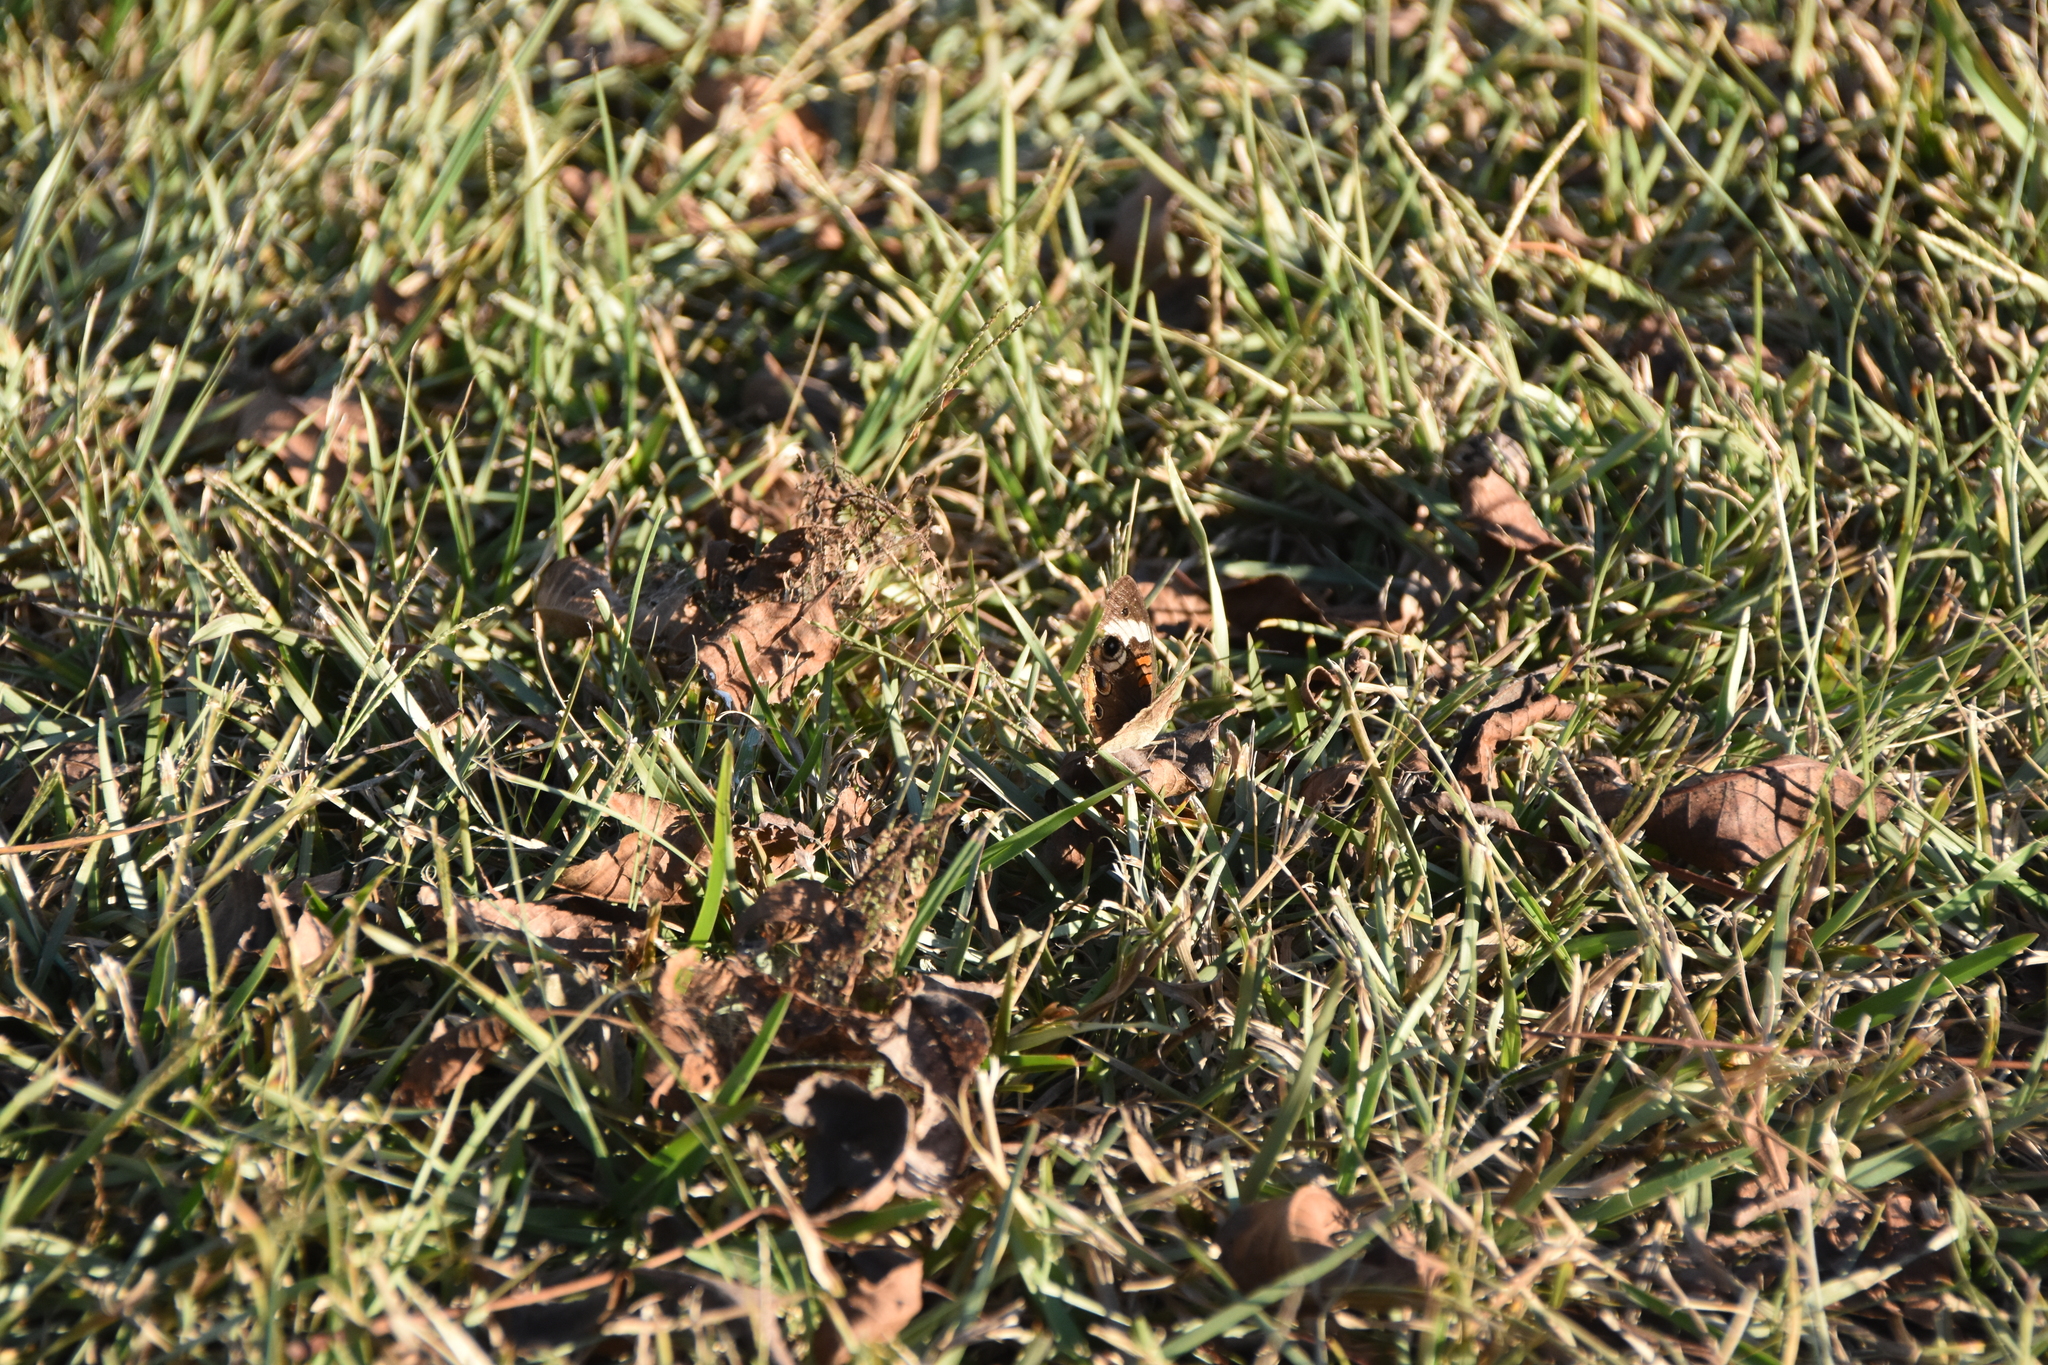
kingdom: Animalia
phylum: Arthropoda
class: Insecta
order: Lepidoptera
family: Nymphalidae
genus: Junonia
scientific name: Junonia coenia
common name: Common buckeye
